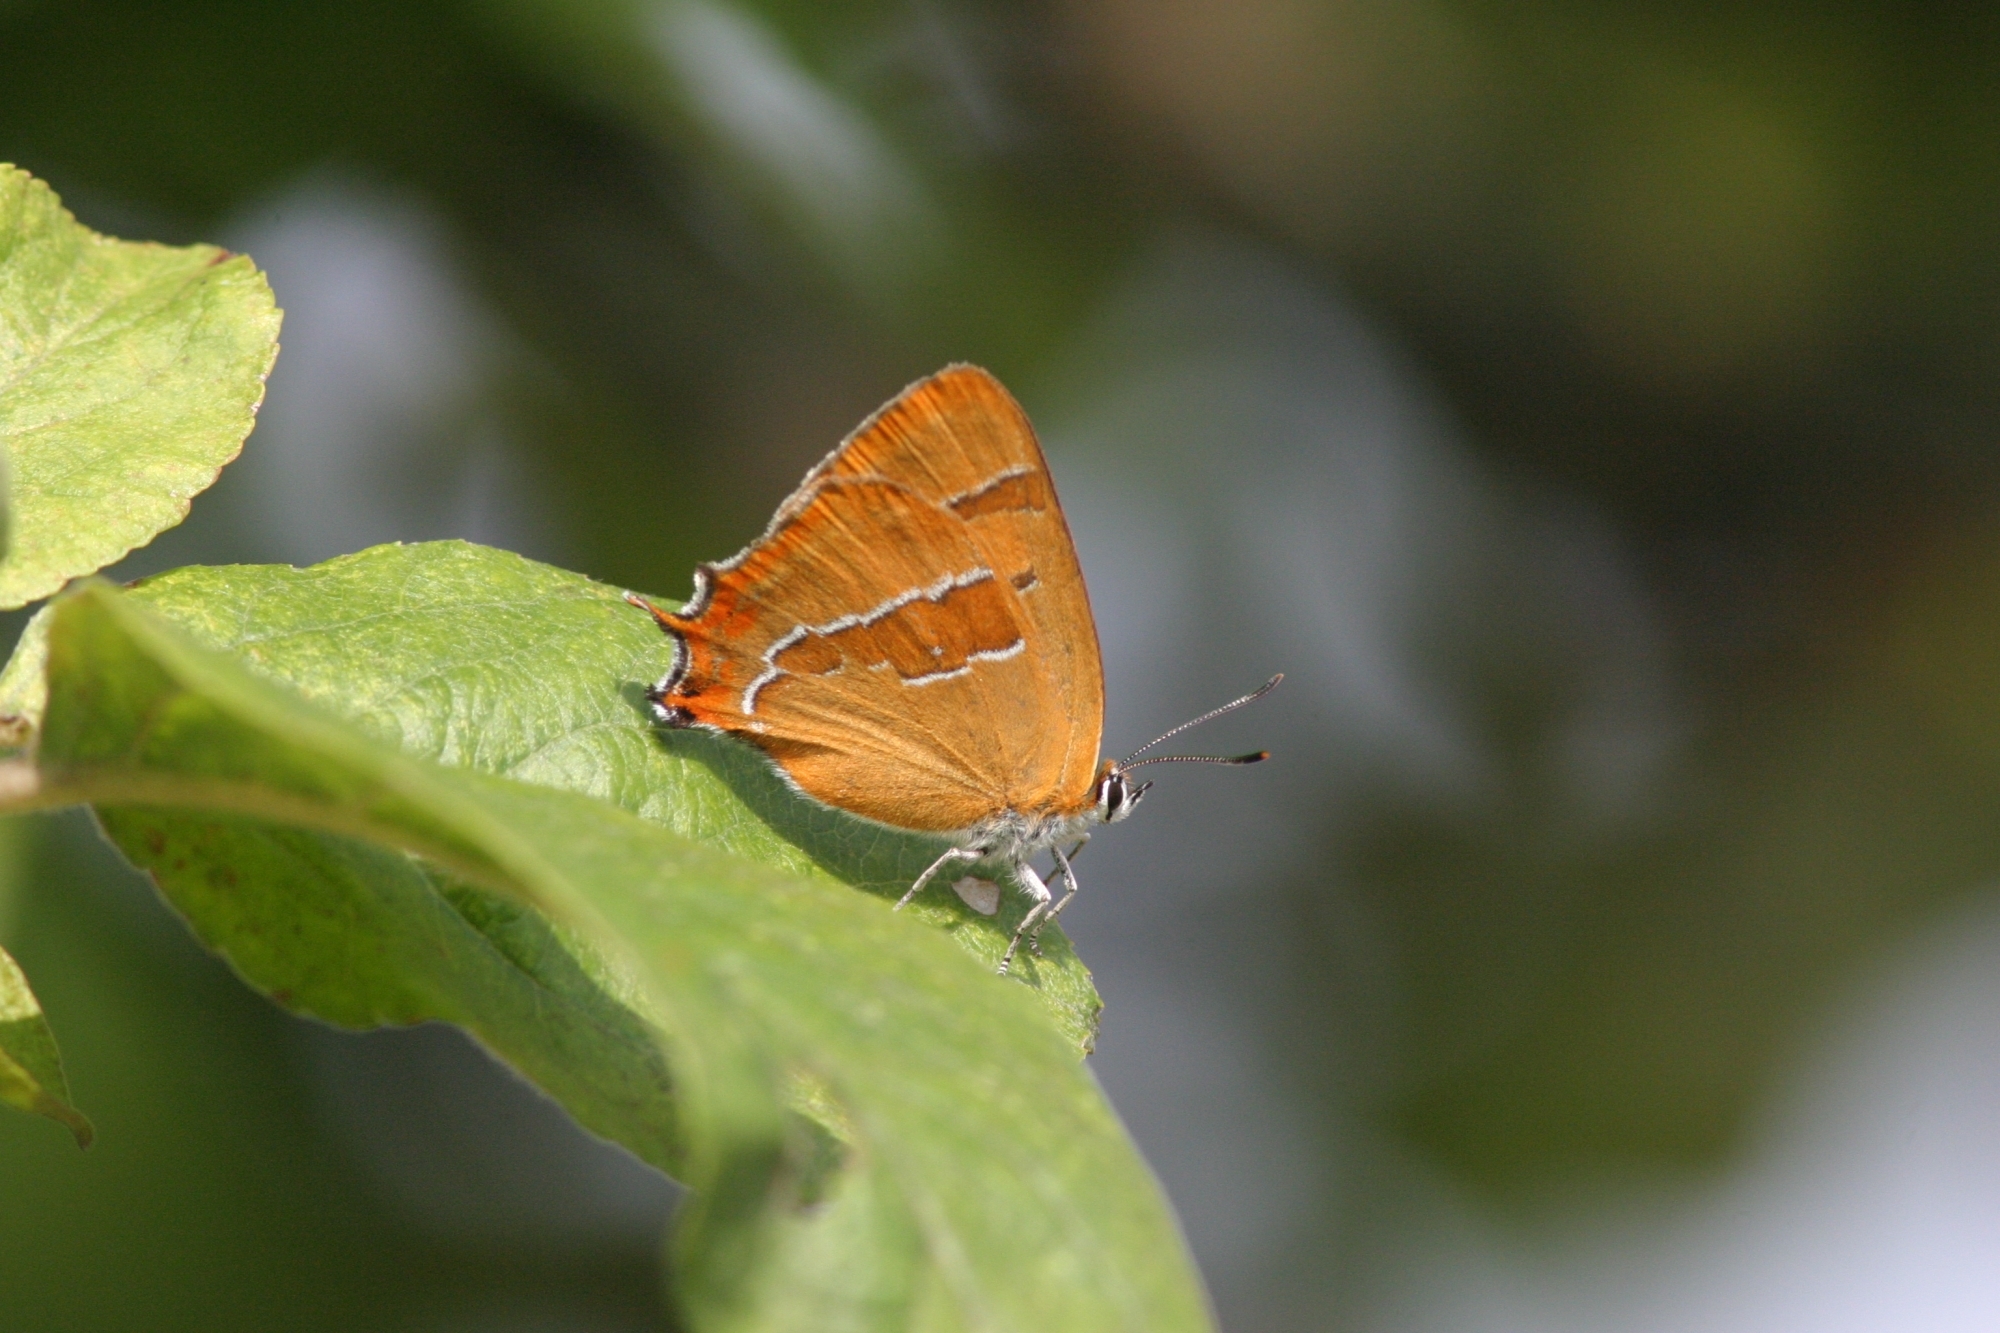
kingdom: Animalia
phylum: Arthropoda
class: Insecta
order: Lepidoptera
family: Lycaenidae
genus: Thecla
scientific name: Thecla betulae
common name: Brown hairstreak
